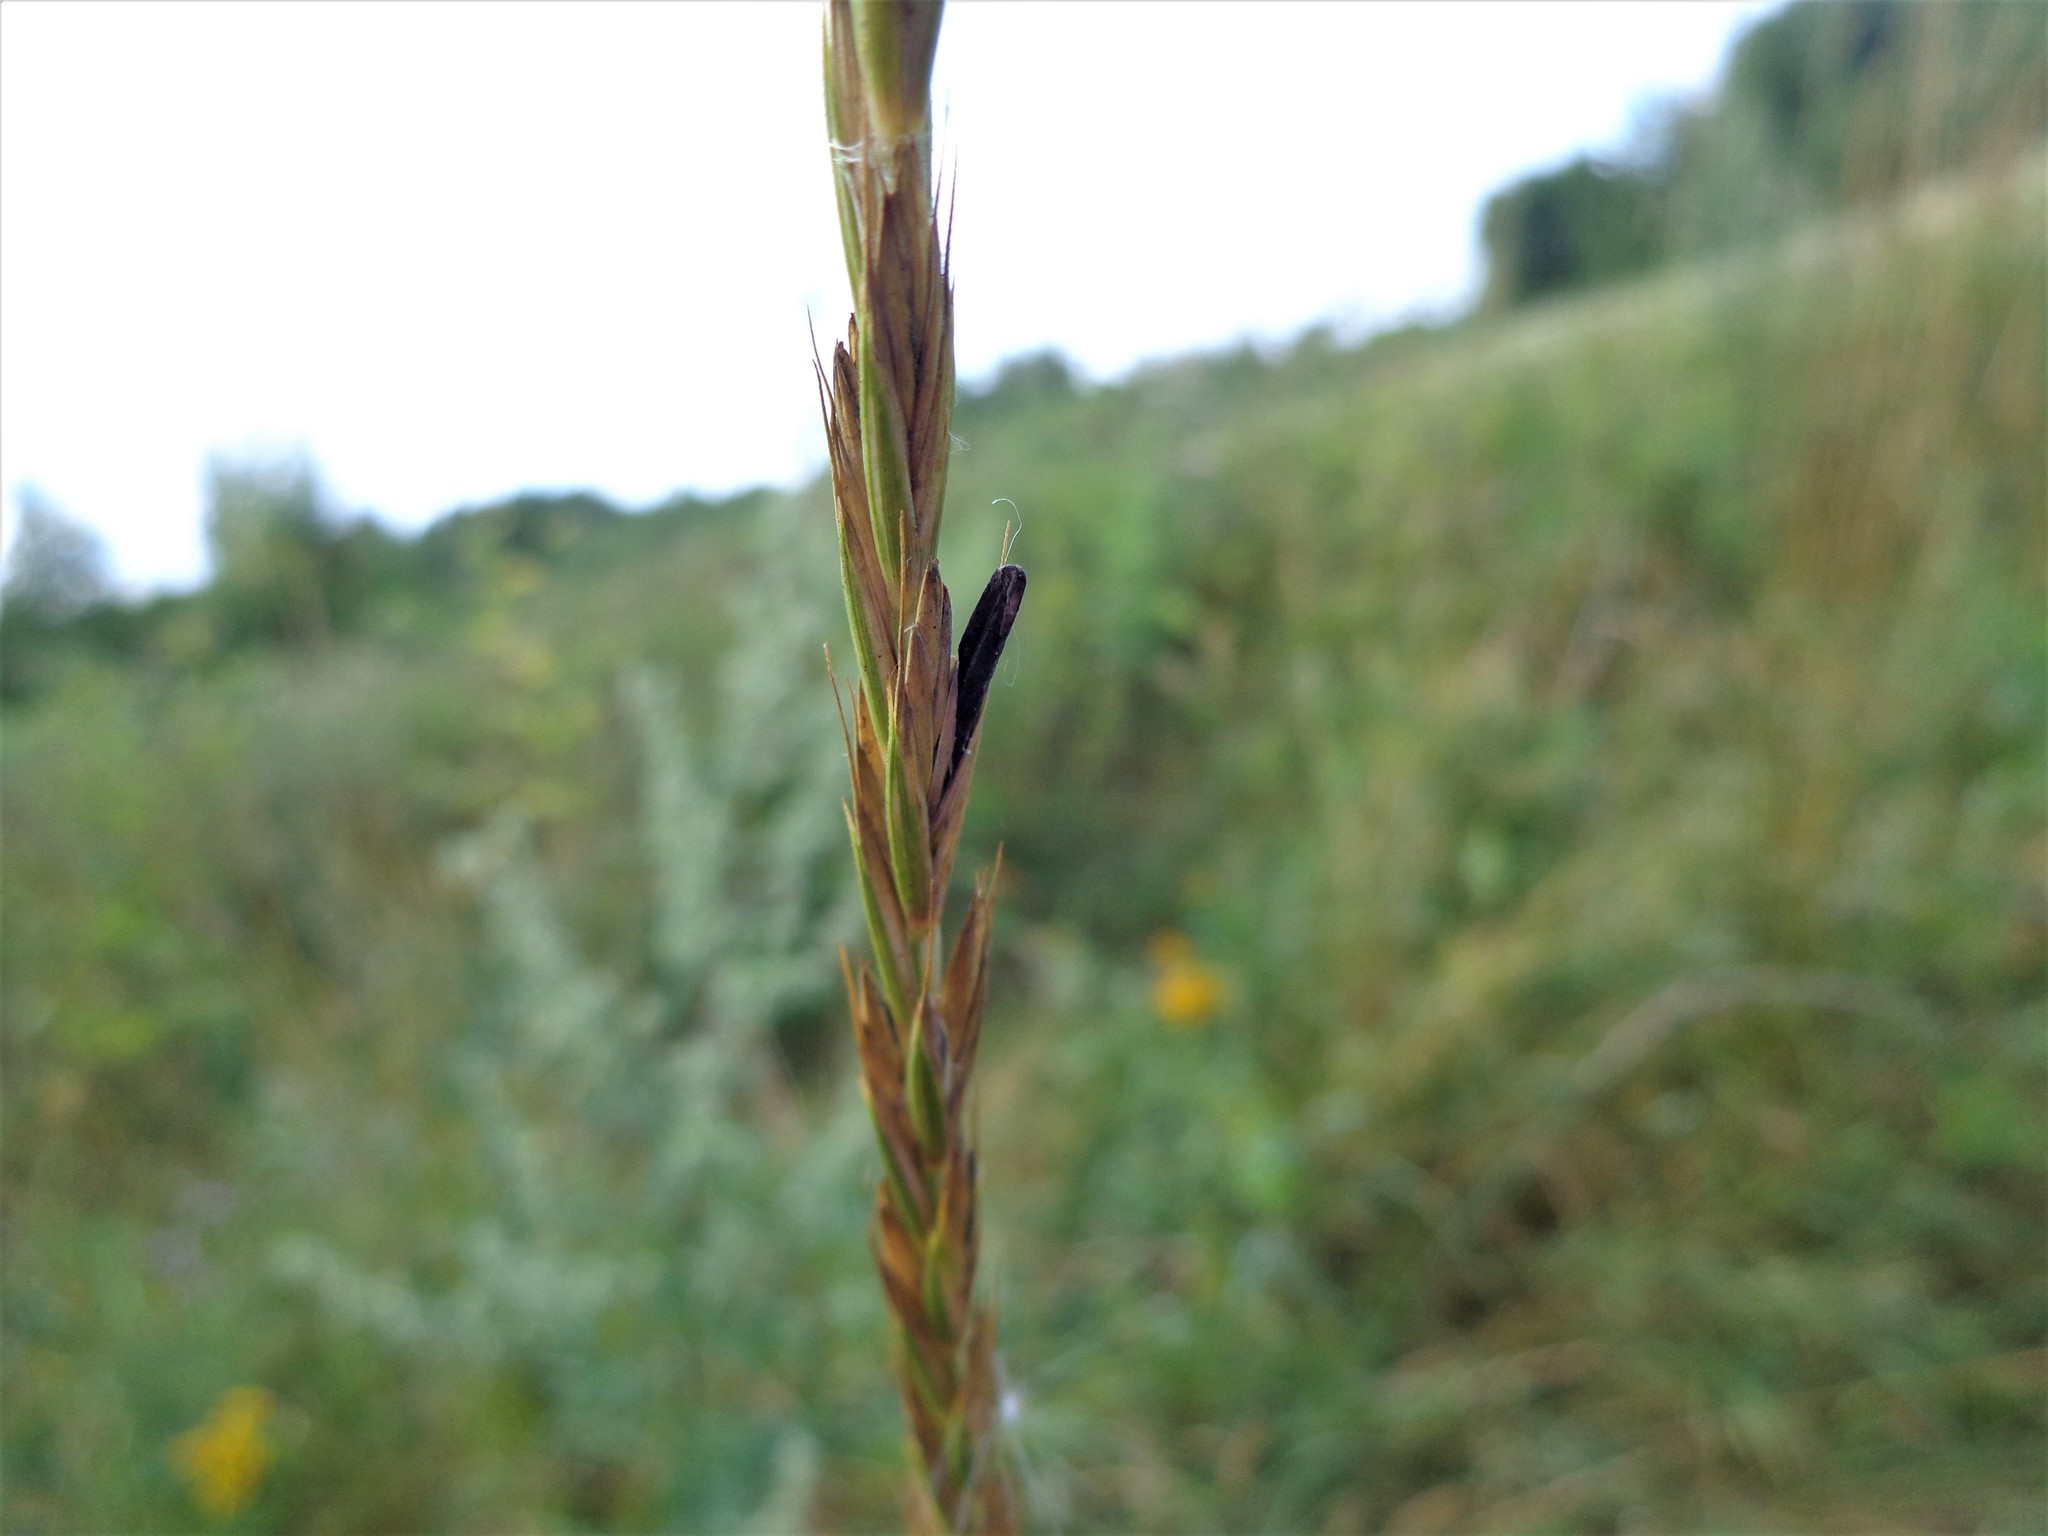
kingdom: Fungi
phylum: Ascomycota
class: Sordariomycetes
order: Hypocreales
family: Clavicipitaceae
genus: Claviceps
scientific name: Claviceps purpurea
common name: Rye ergot
